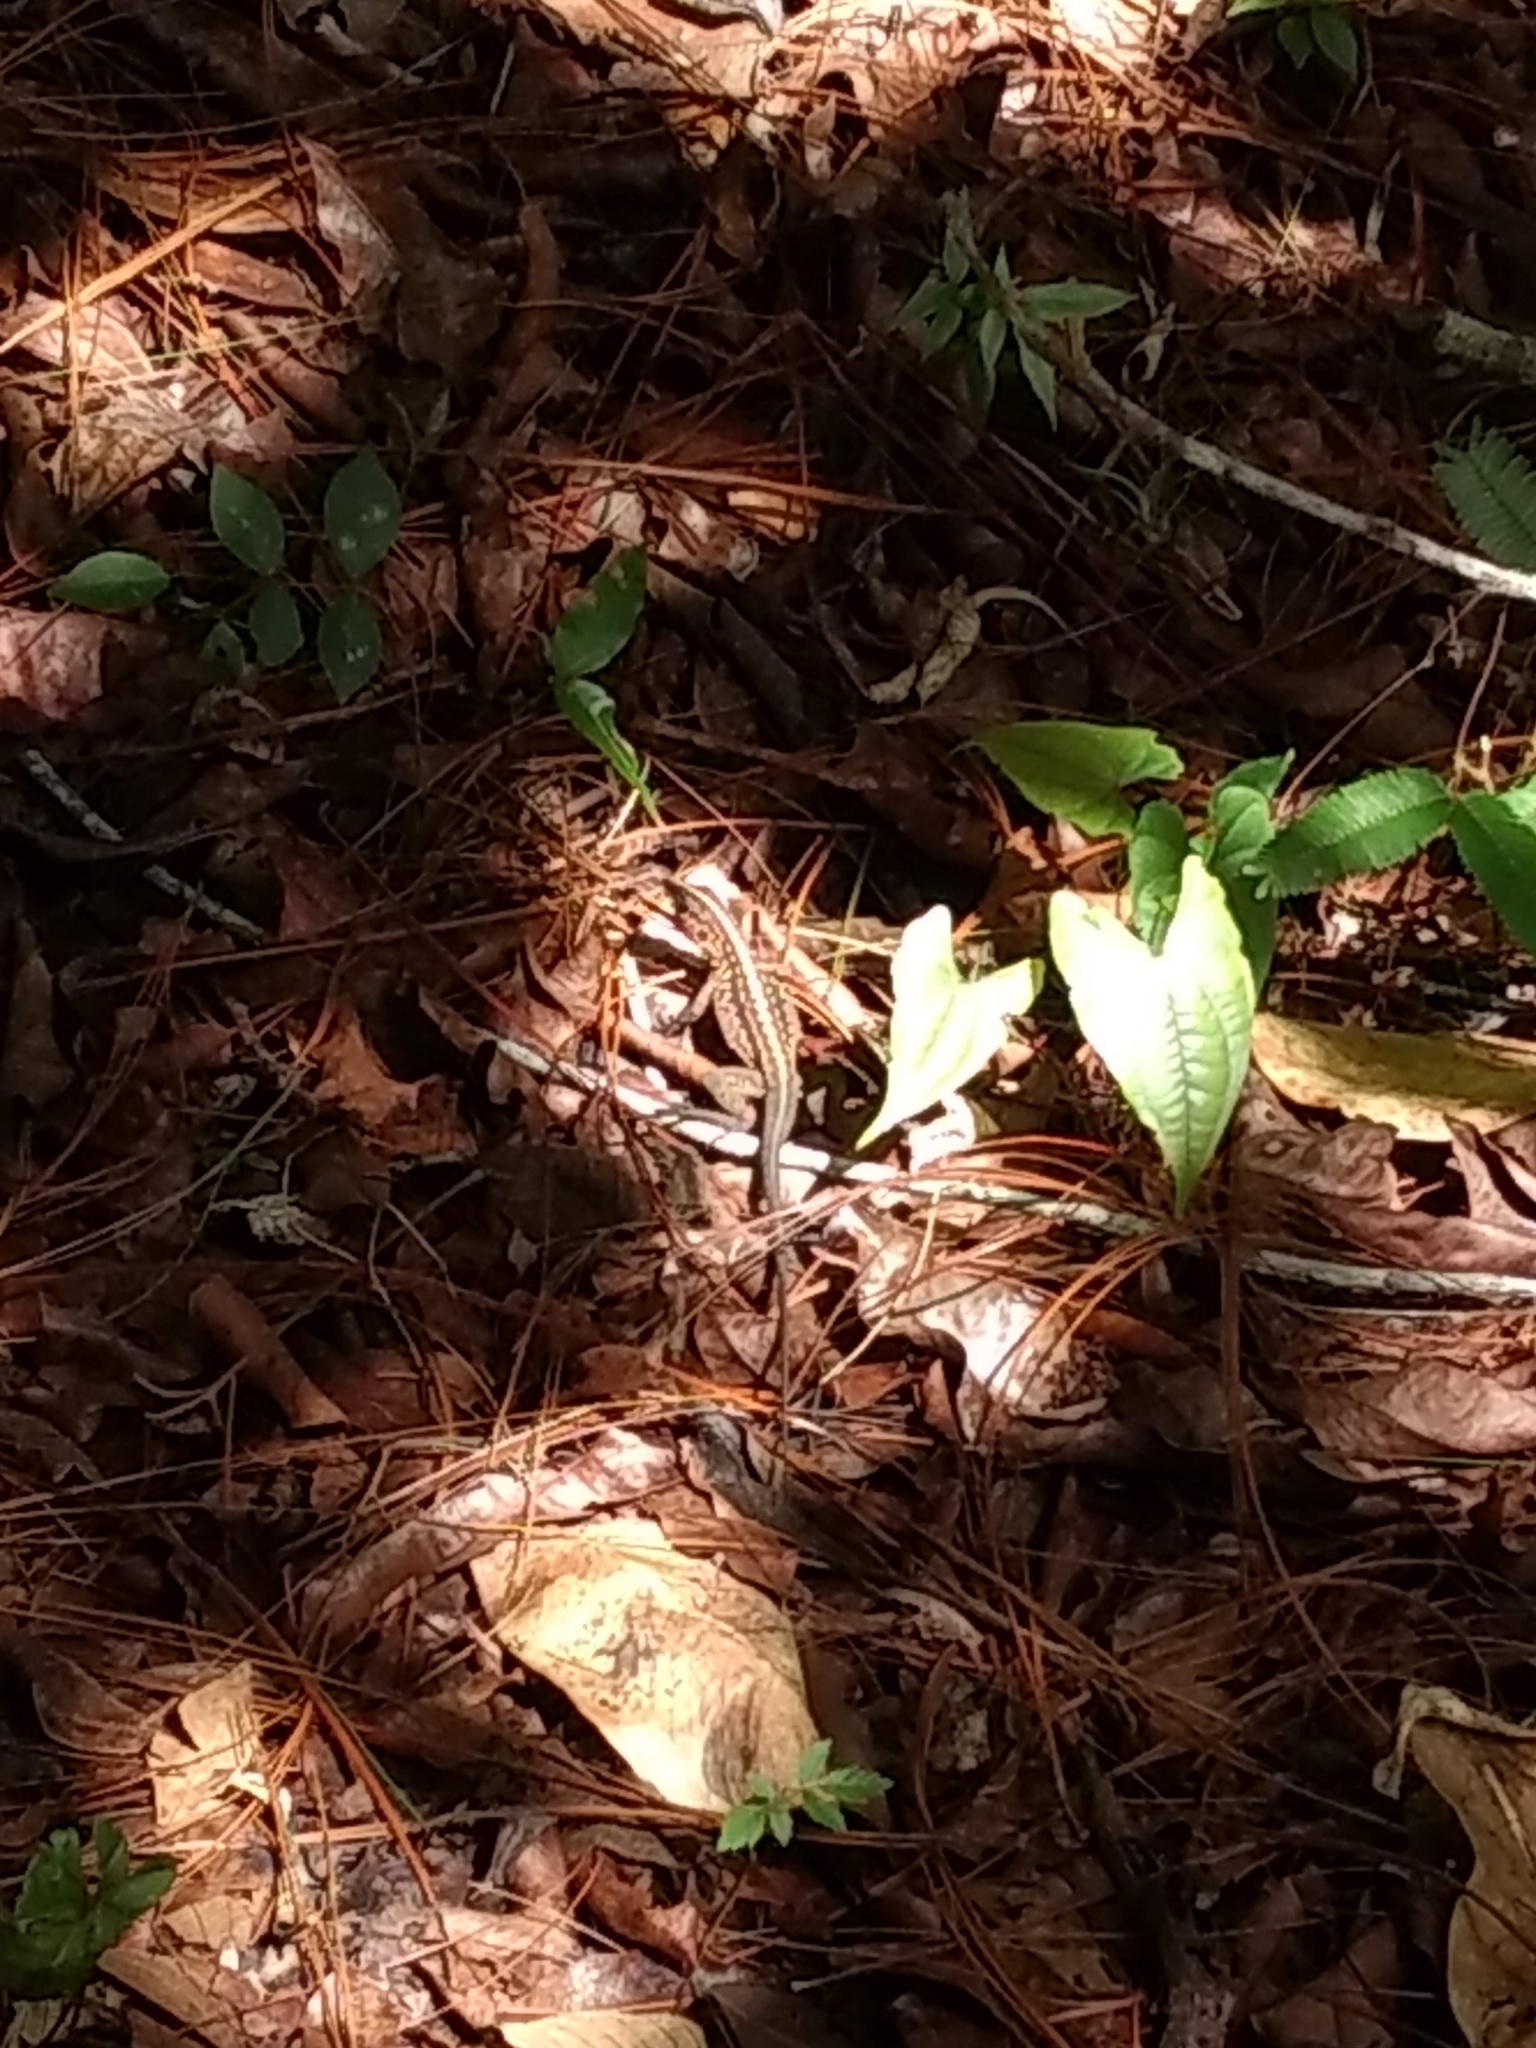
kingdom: Animalia
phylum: Chordata
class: Squamata
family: Teiidae
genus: Holcosus
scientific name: Holcosus gaigeae
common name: Rainbow ameiva
